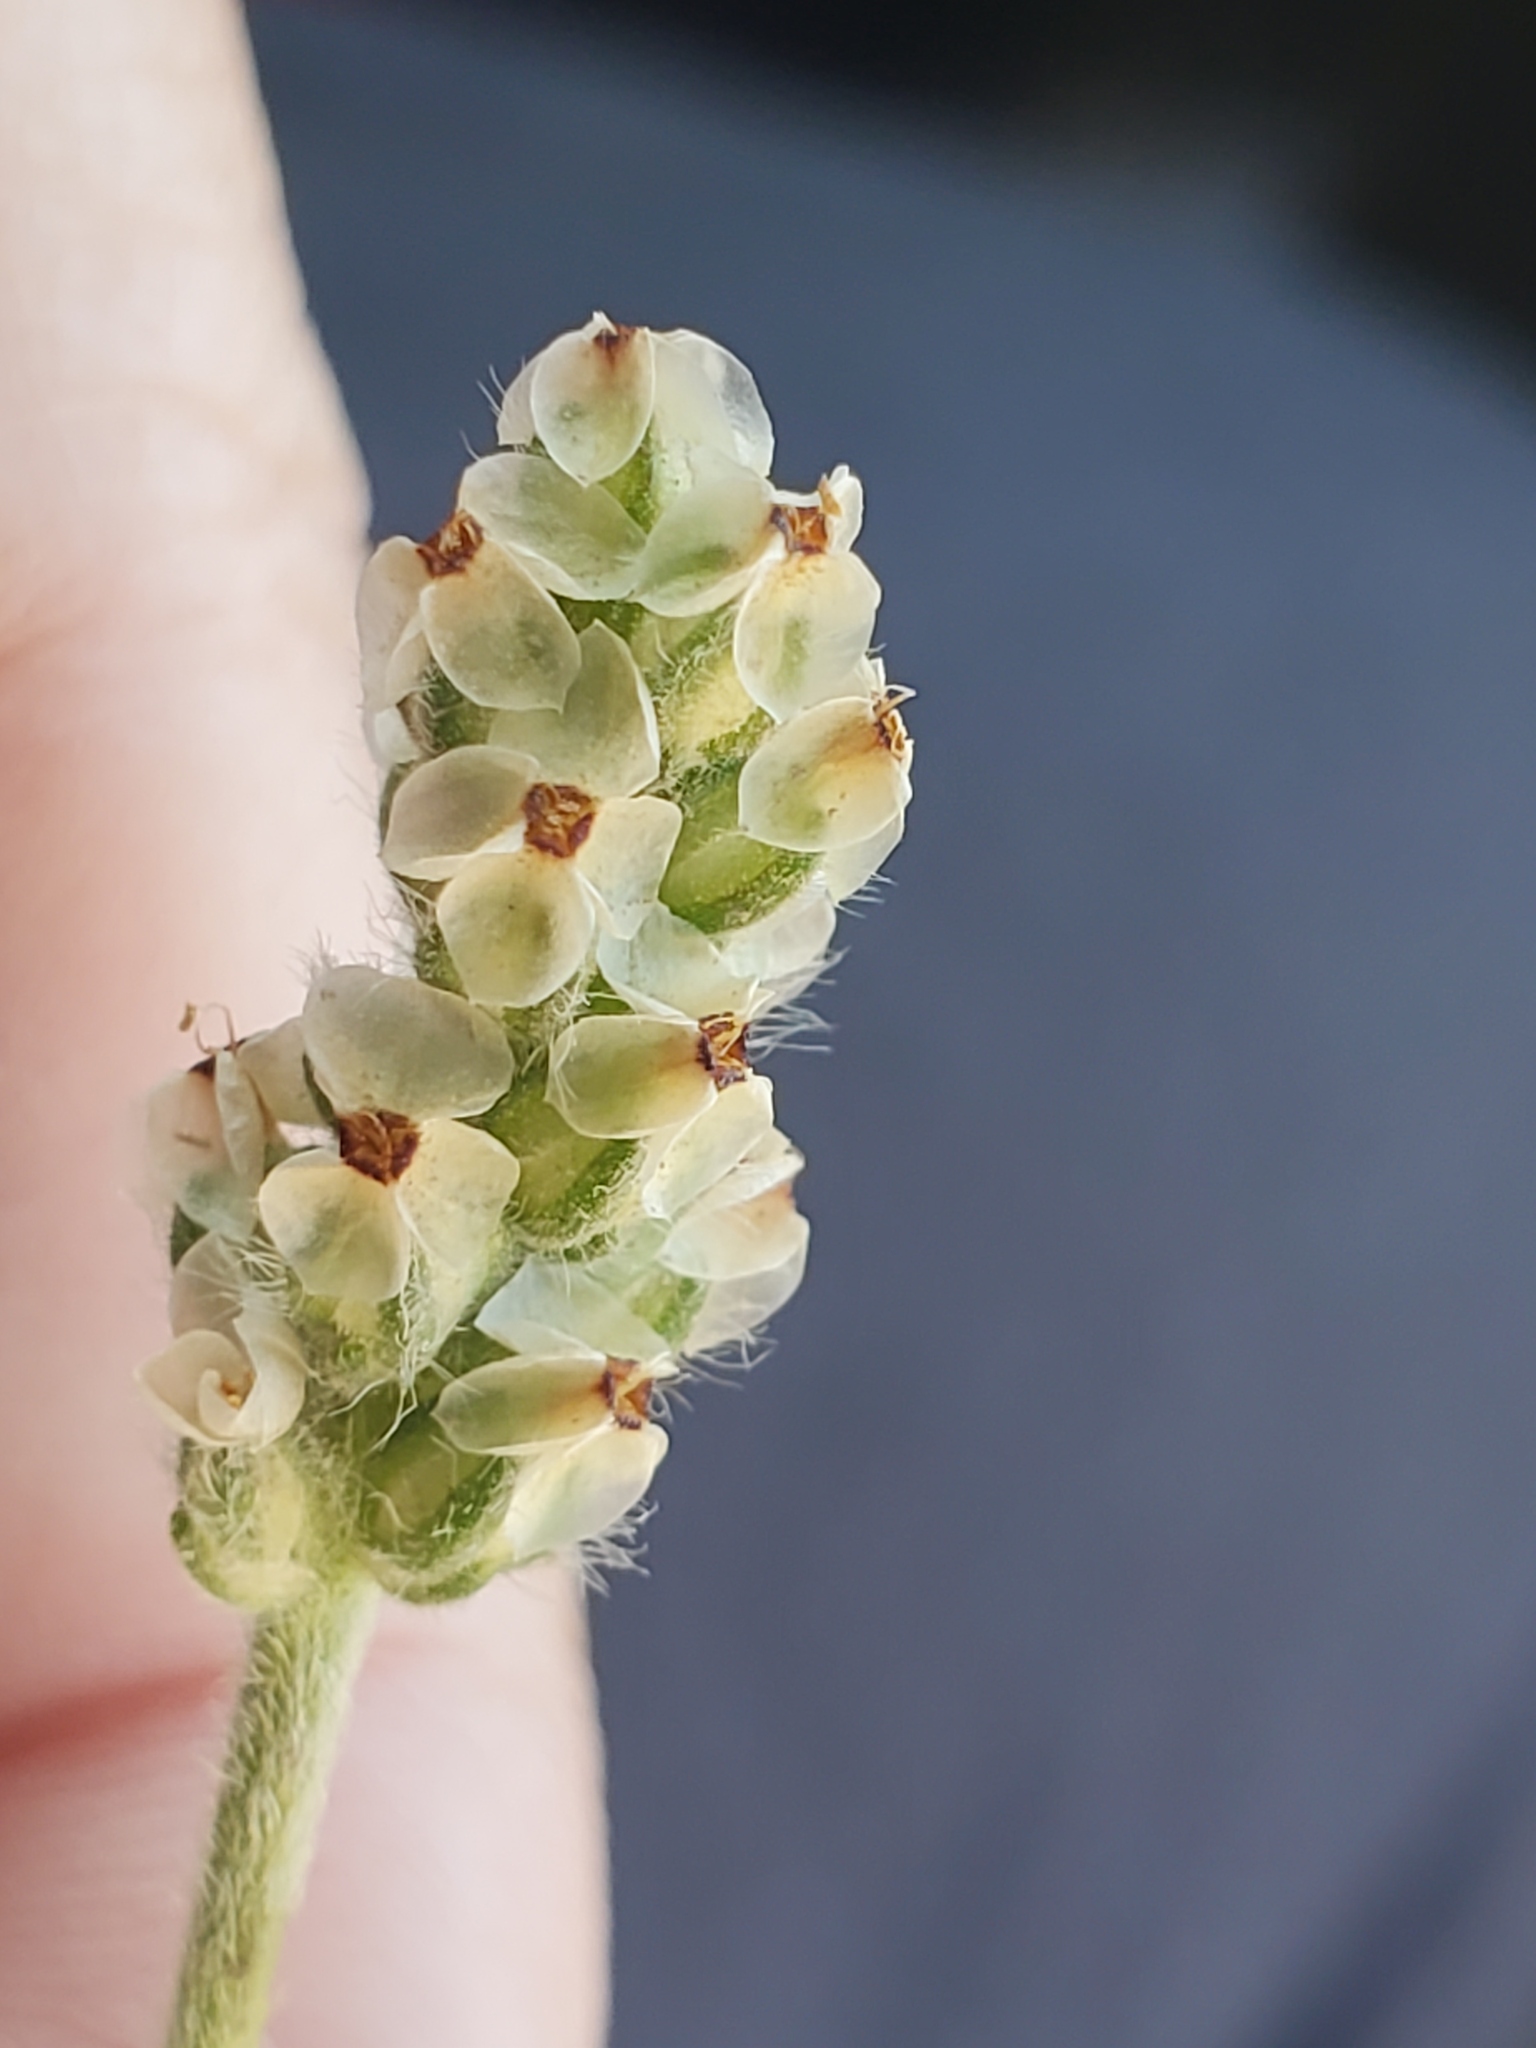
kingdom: Plantae
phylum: Tracheophyta
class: Magnoliopsida
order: Lamiales
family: Plantaginaceae
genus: Plantago
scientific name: Plantago erecta
